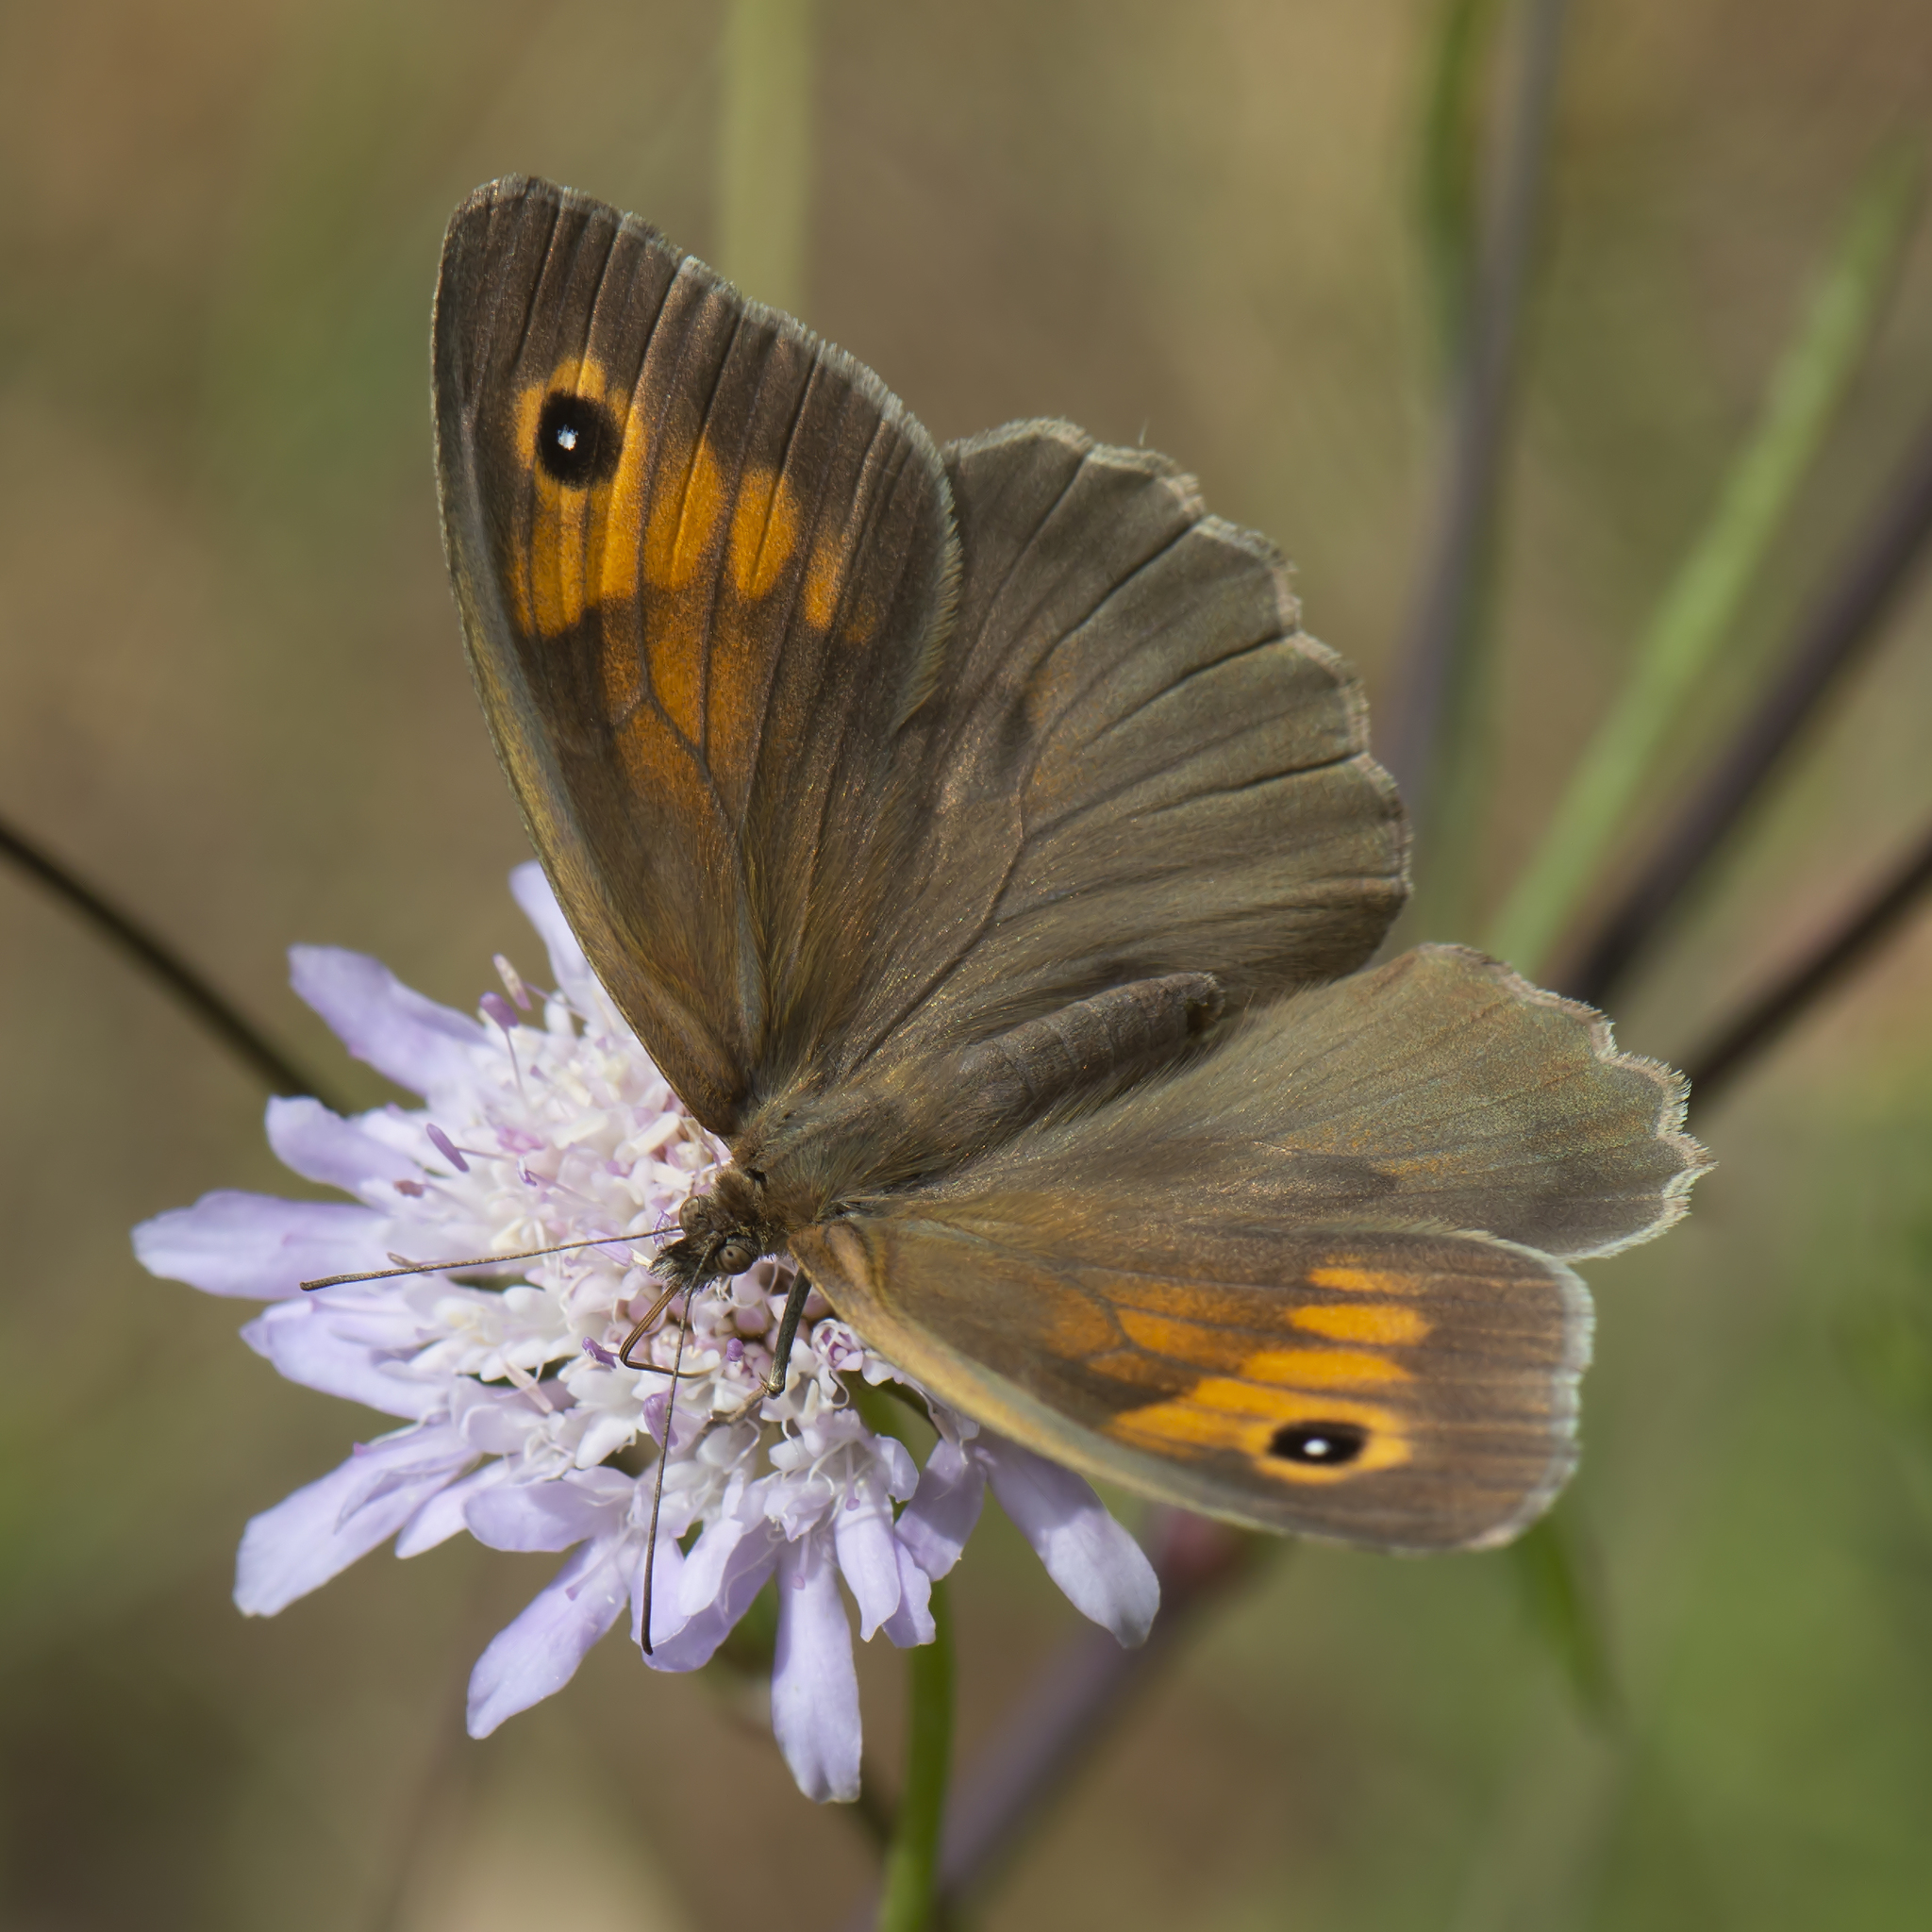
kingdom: Animalia
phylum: Arthropoda
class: Insecta
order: Lepidoptera
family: Nymphalidae
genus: Maniola
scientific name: Maniola jurtina
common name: Meadow brown
